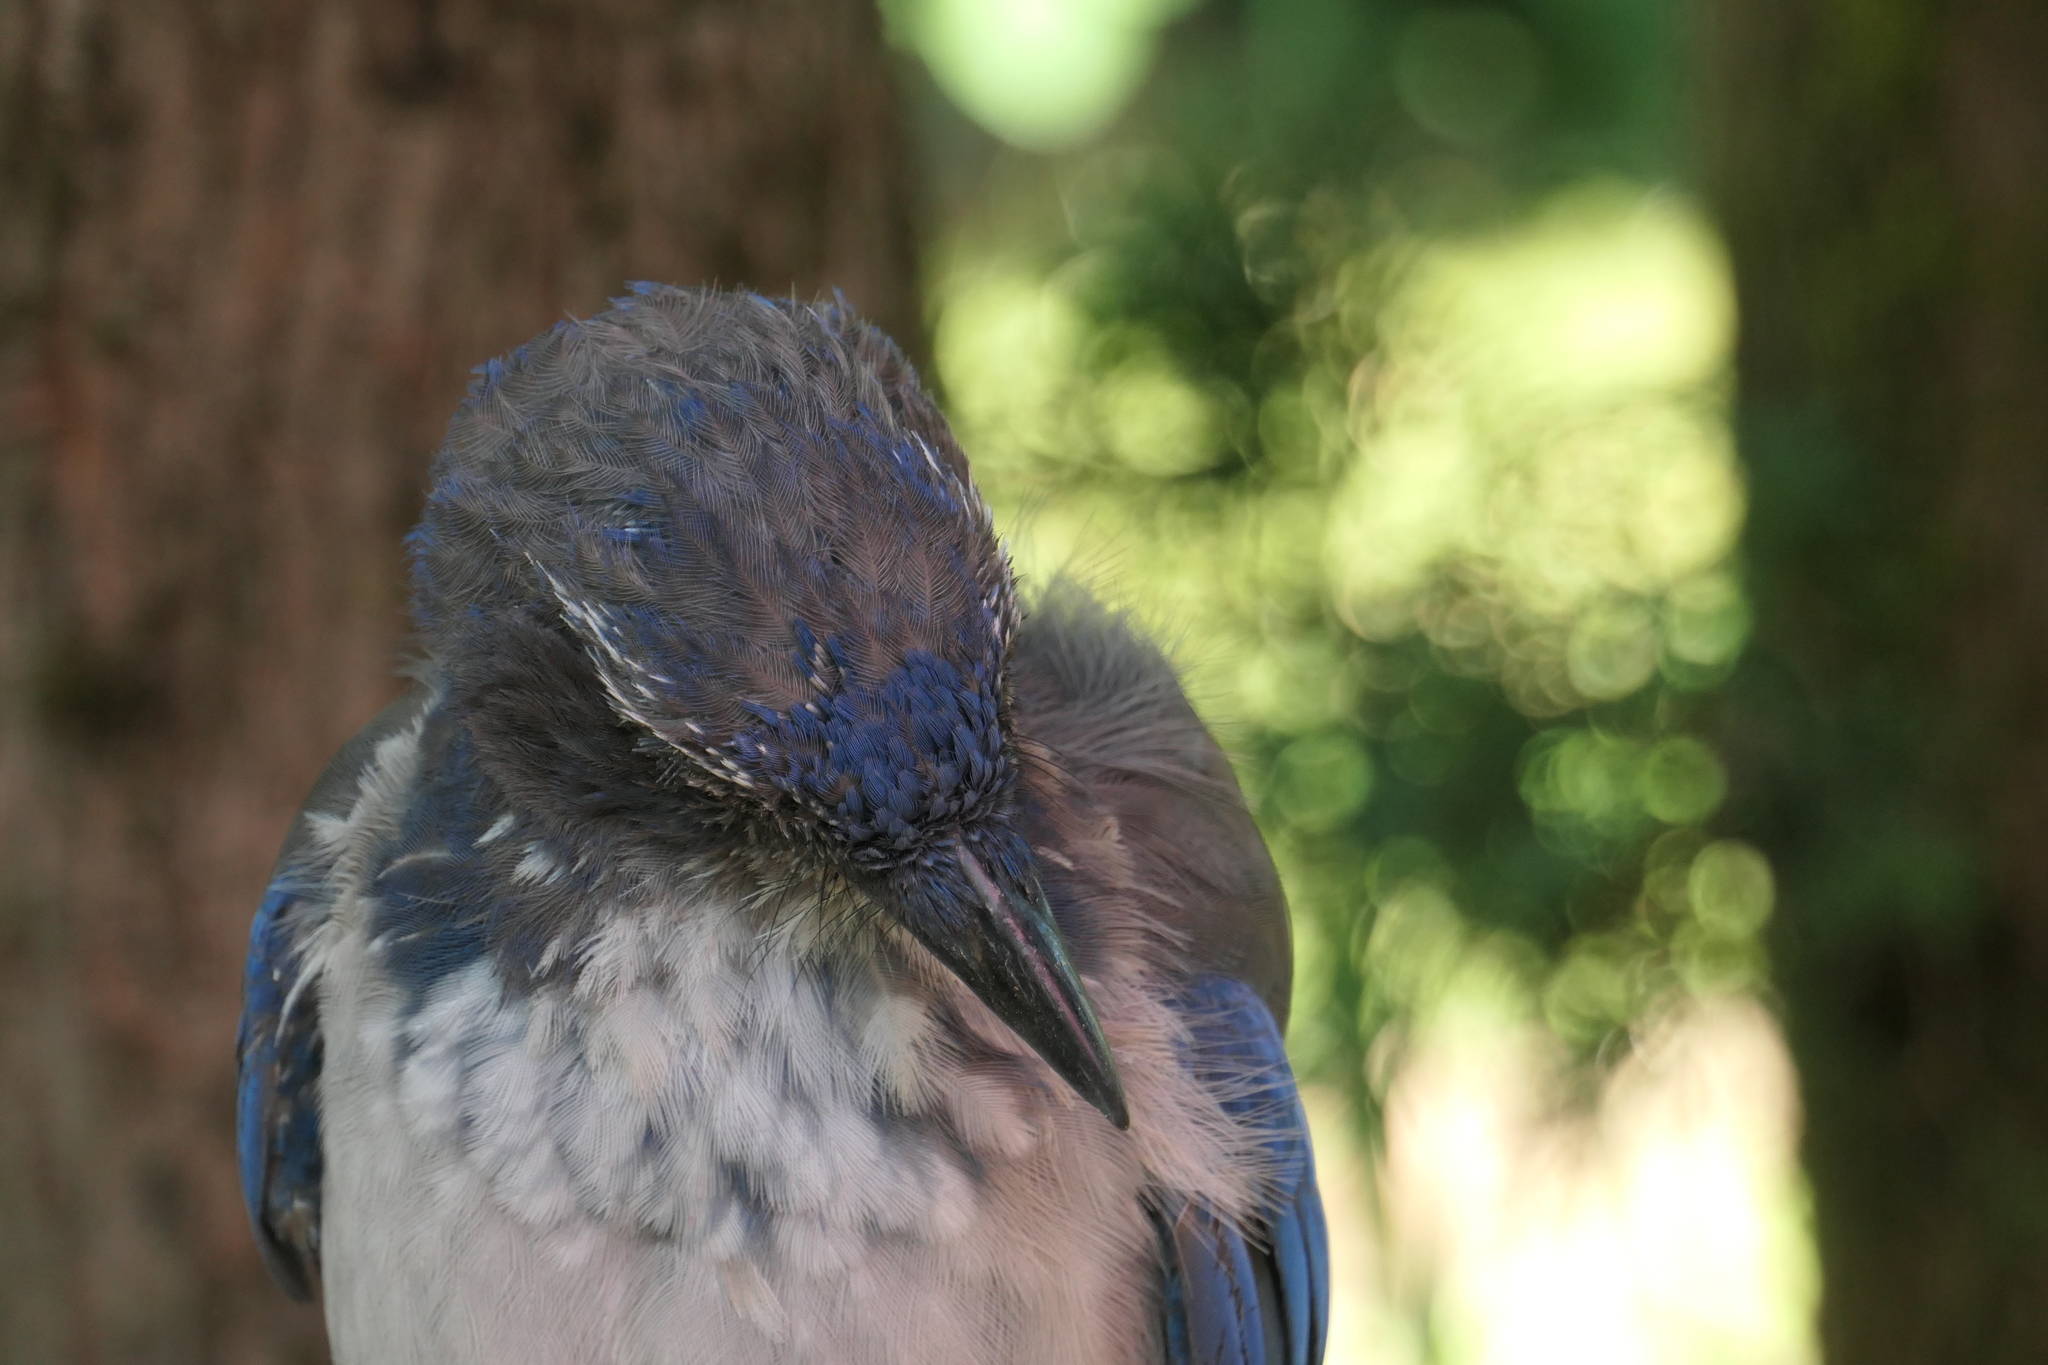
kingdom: Animalia
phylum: Chordata
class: Aves
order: Passeriformes
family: Corvidae
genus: Aphelocoma
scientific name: Aphelocoma californica
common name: California scrub-jay
